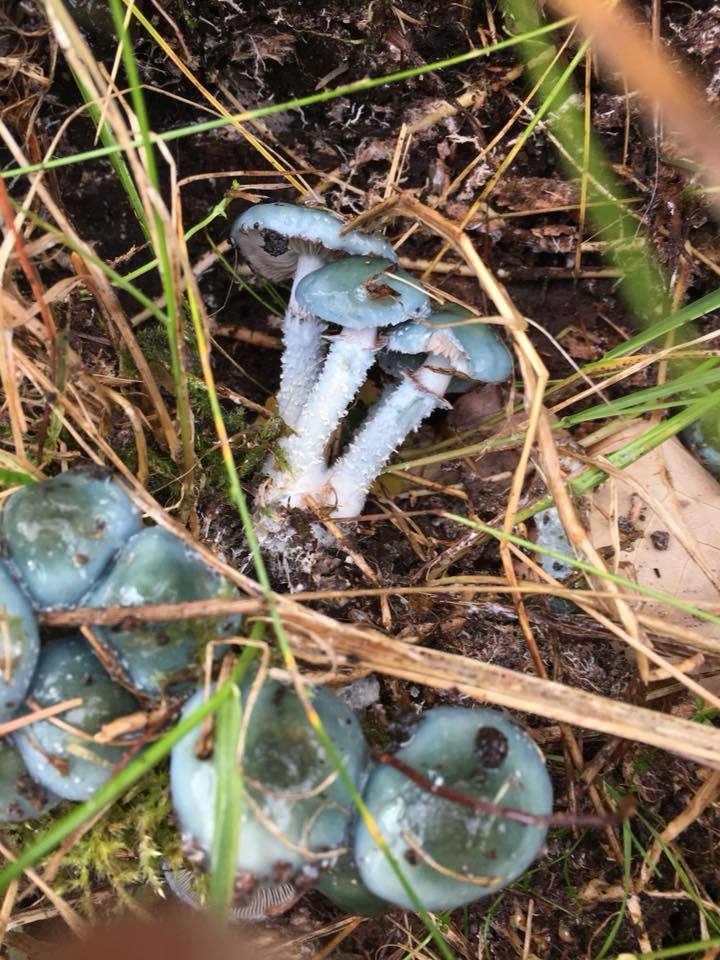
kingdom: Fungi
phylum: Basidiomycota
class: Agaricomycetes
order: Agaricales
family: Strophariaceae
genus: Stropharia
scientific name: Stropharia caerulea
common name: Blue roundhead
